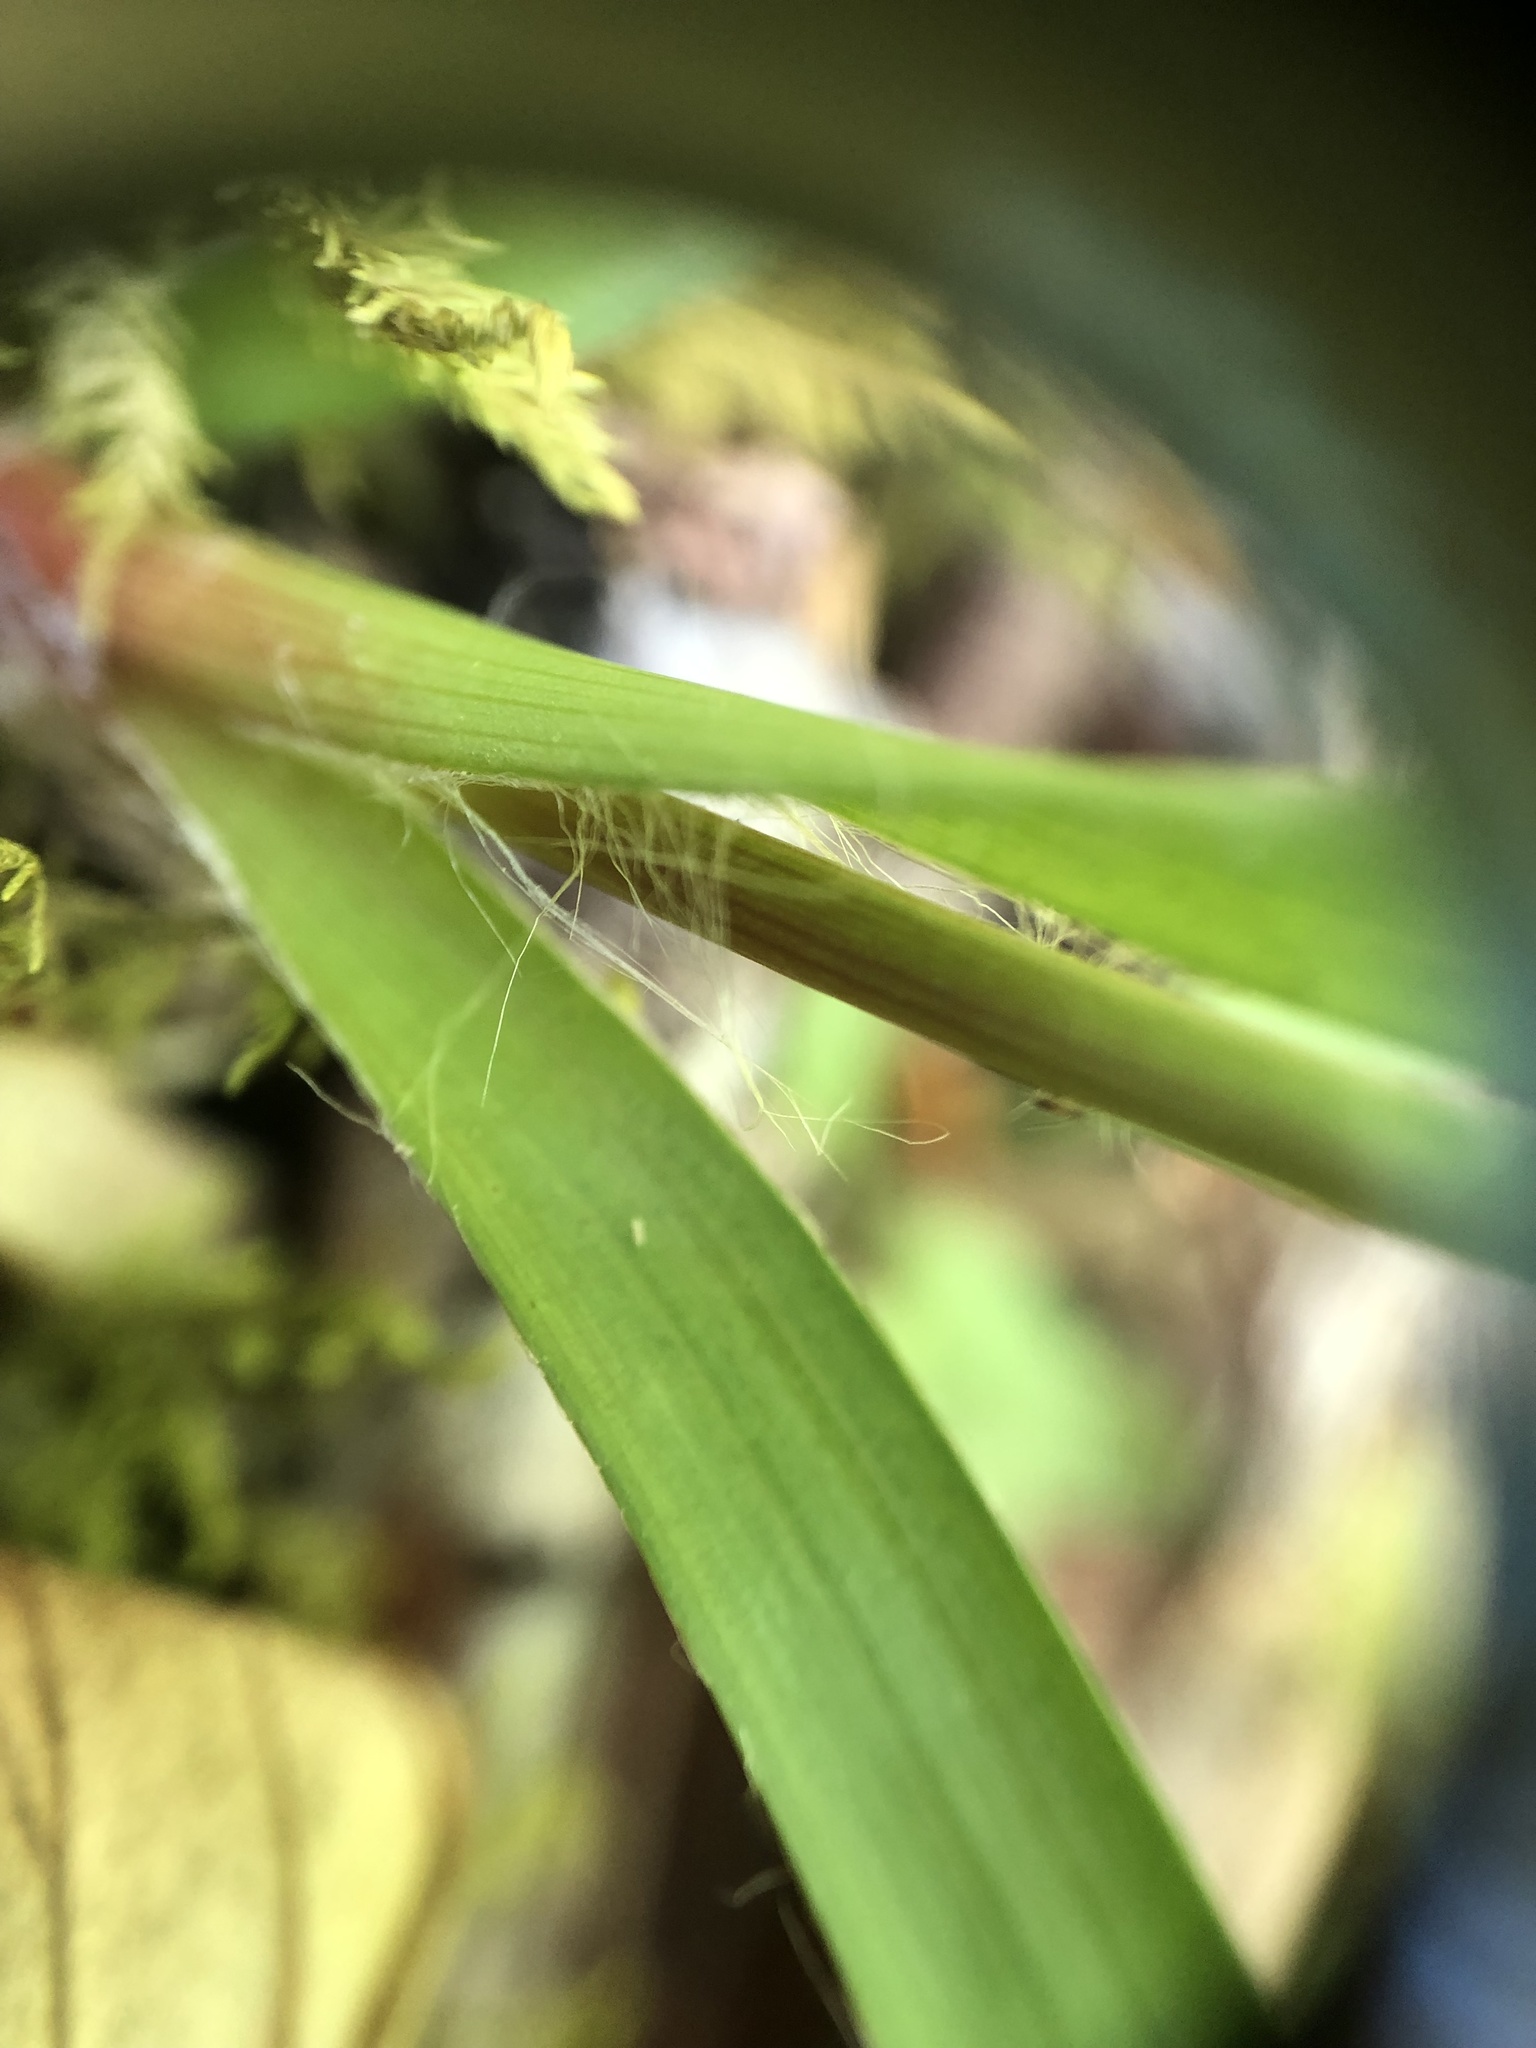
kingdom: Plantae
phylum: Tracheophyta
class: Liliopsida
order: Poales
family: Juncaceae
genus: Luzula
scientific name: Luzula acuminata
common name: Hairy woodrush
